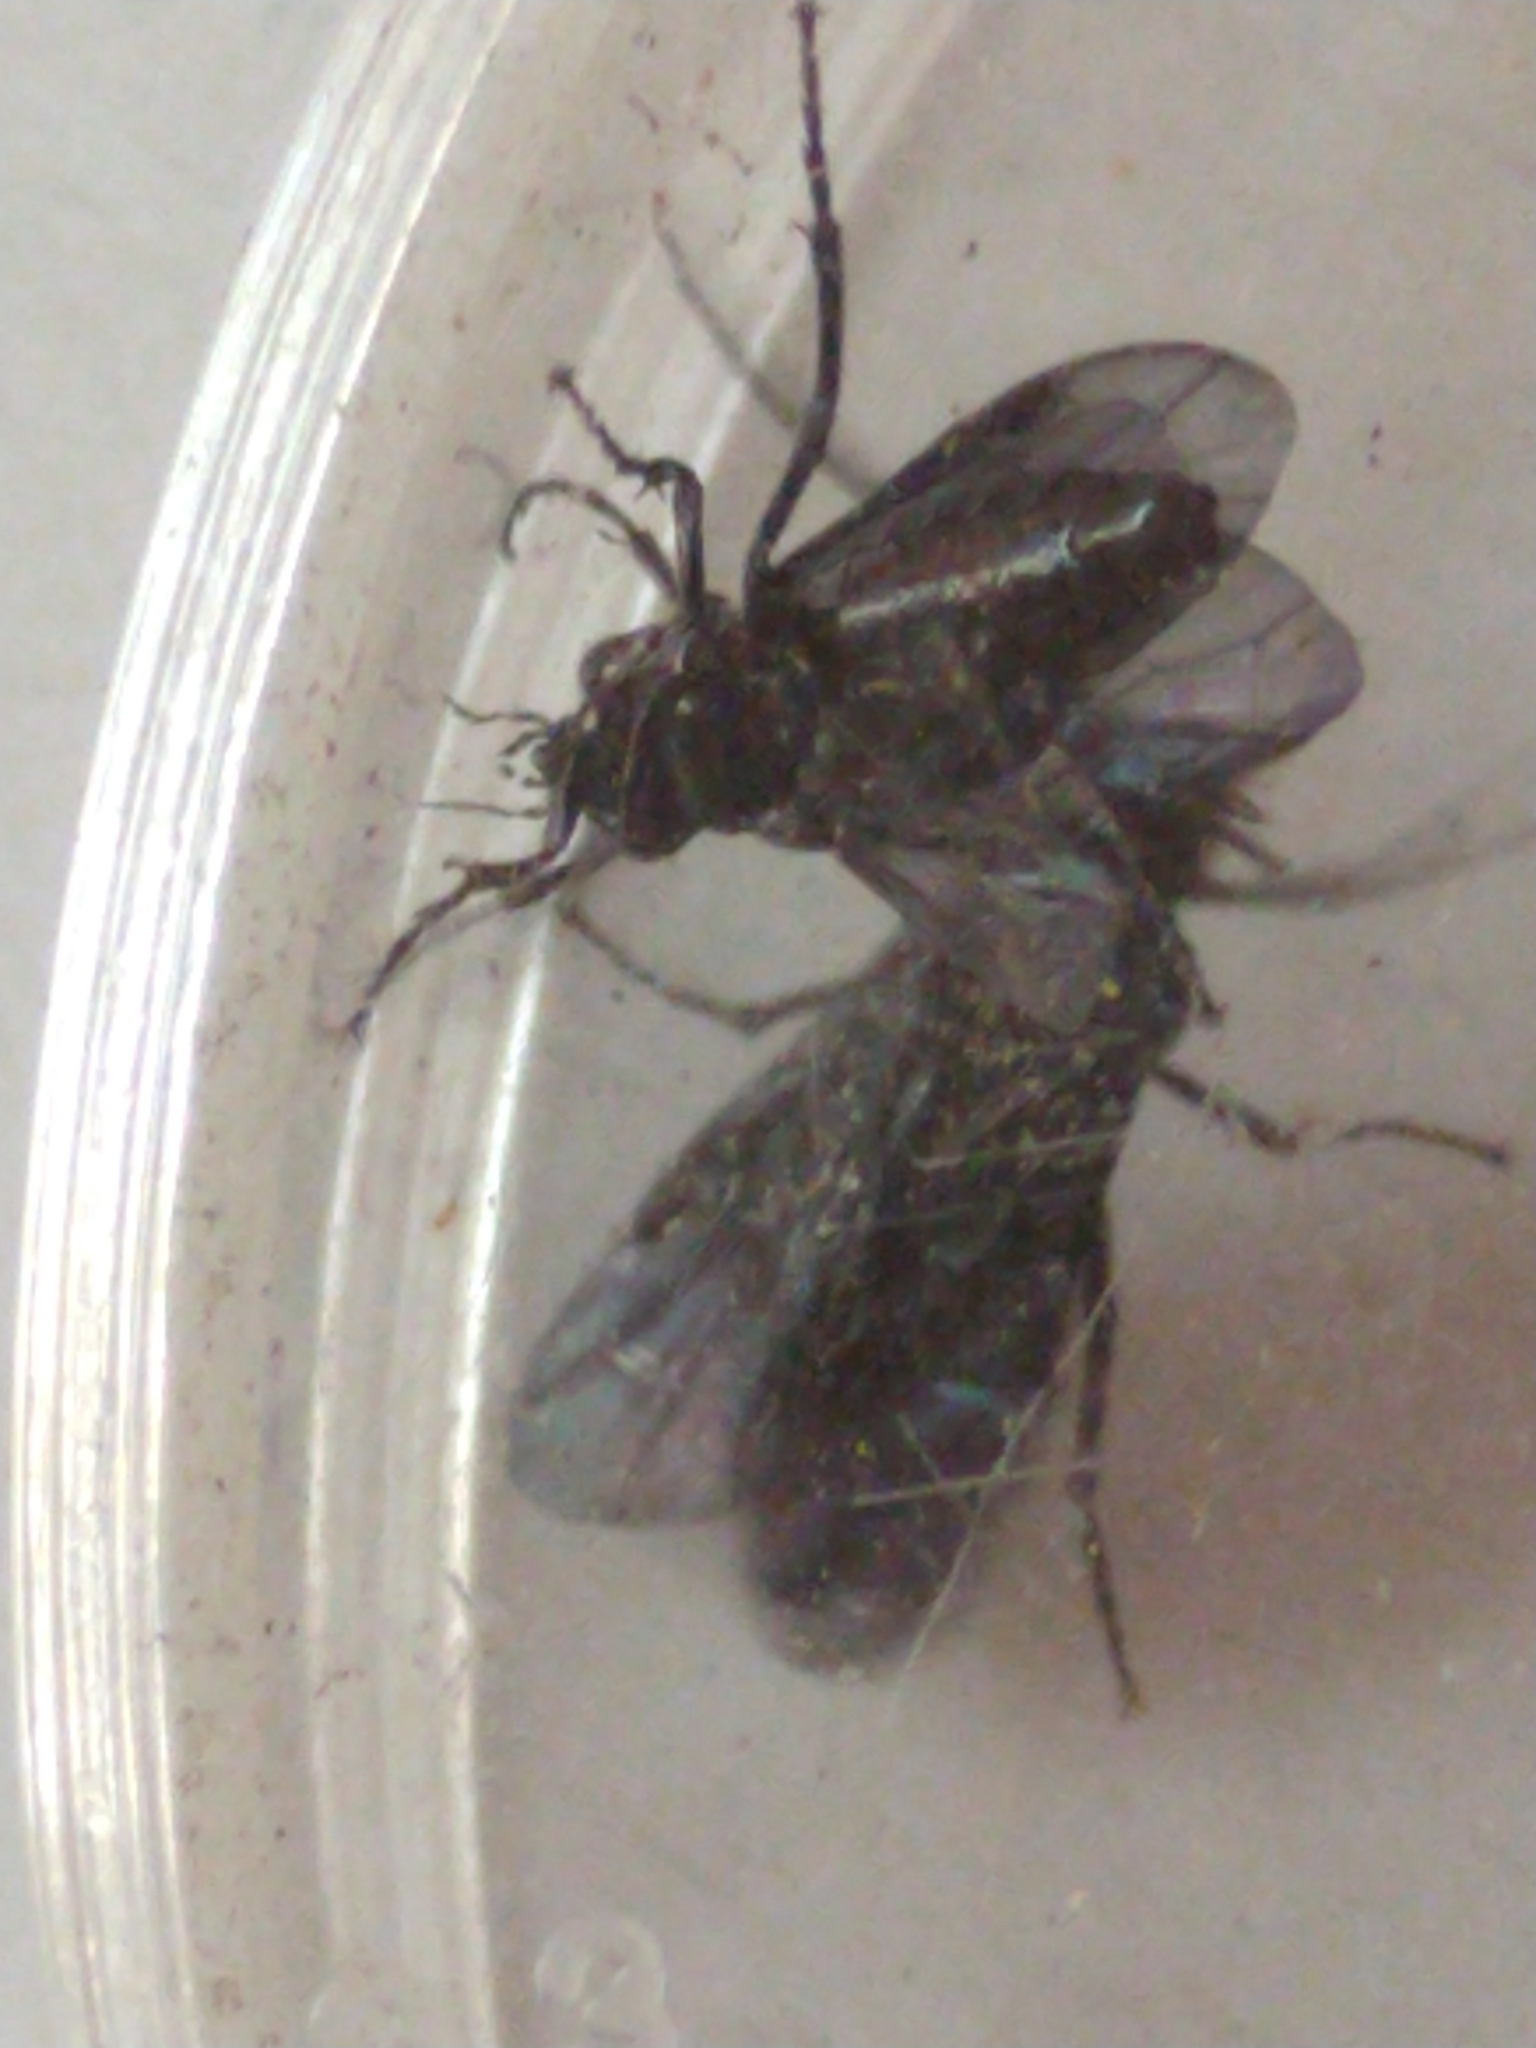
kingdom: Animalia
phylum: Arthropoda
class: Insecta
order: Hymenoptera
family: Tenthredinidae
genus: Phymatocera
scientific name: Phymatocera aterrima
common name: Solomon's-seal sawfly
